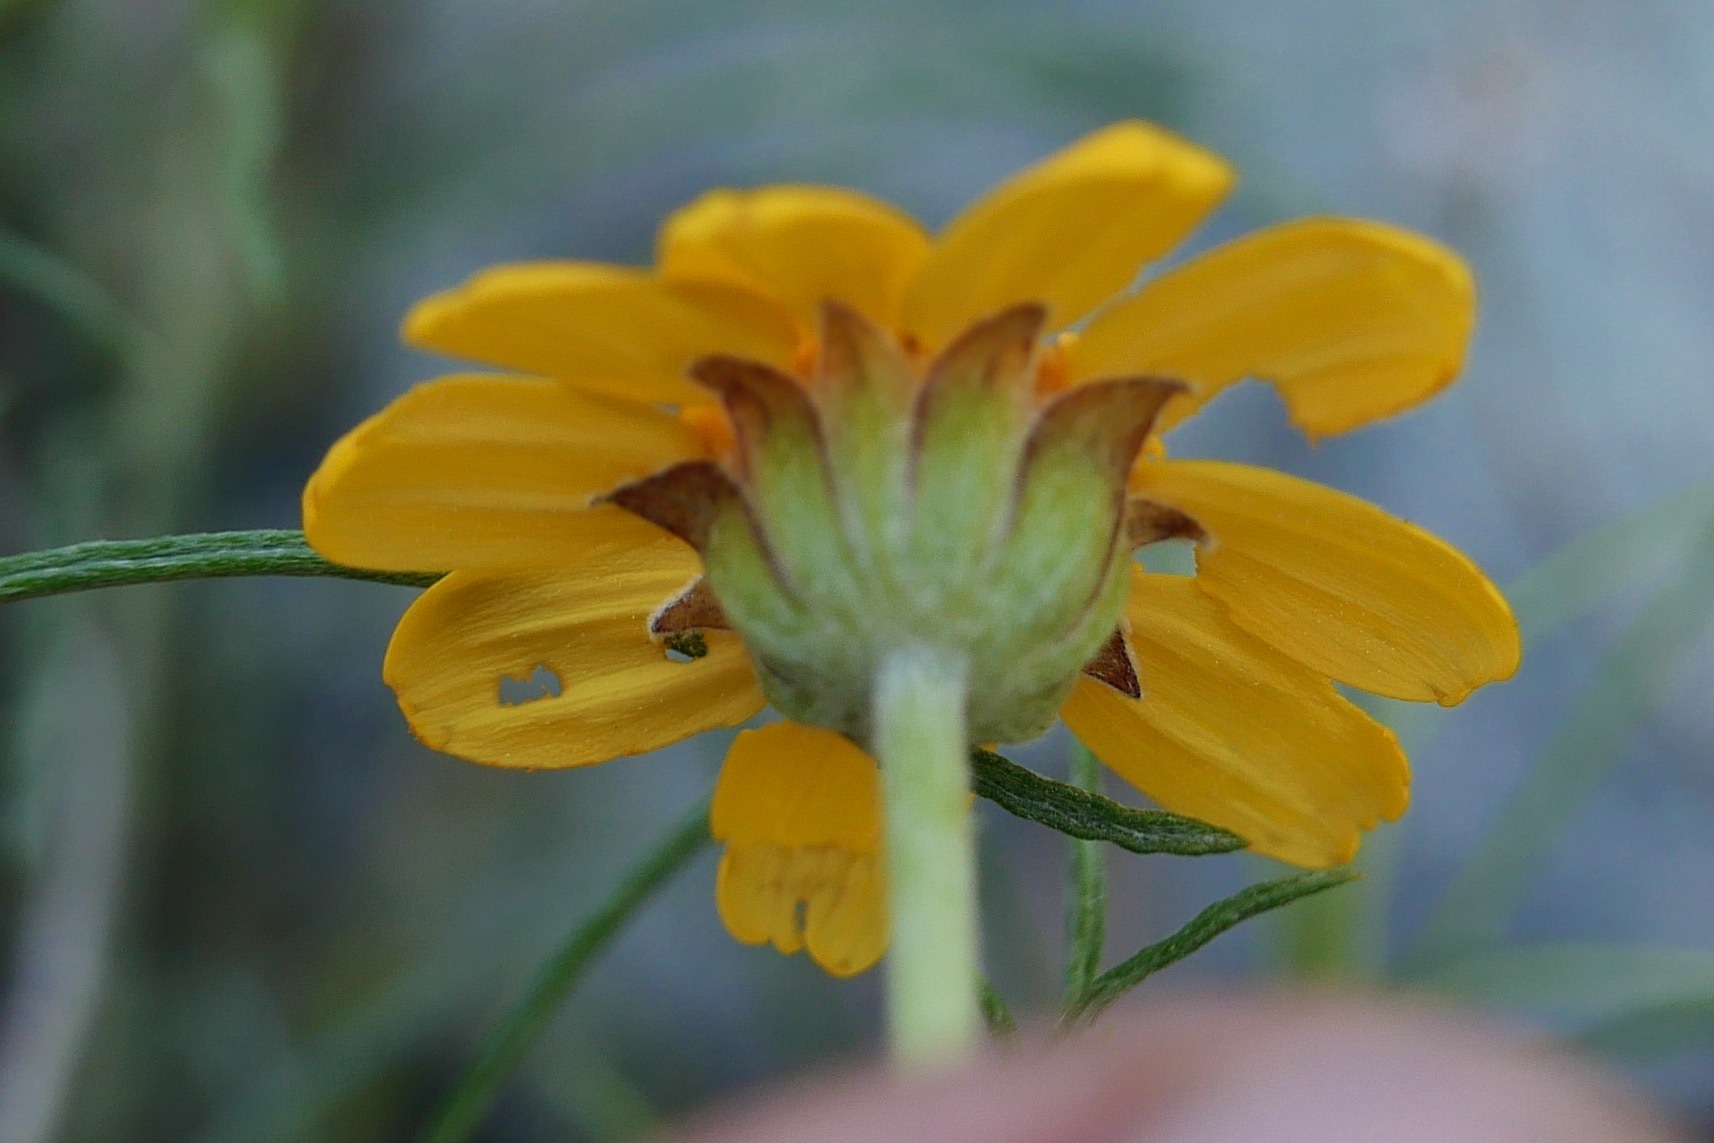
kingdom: Plantae
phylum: Tracheophyta
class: Magnoliopsida
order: Asterales
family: Asteraceae
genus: Eriophyllum
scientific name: Eriophyllum lanatum
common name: Common woolly-sunflower
